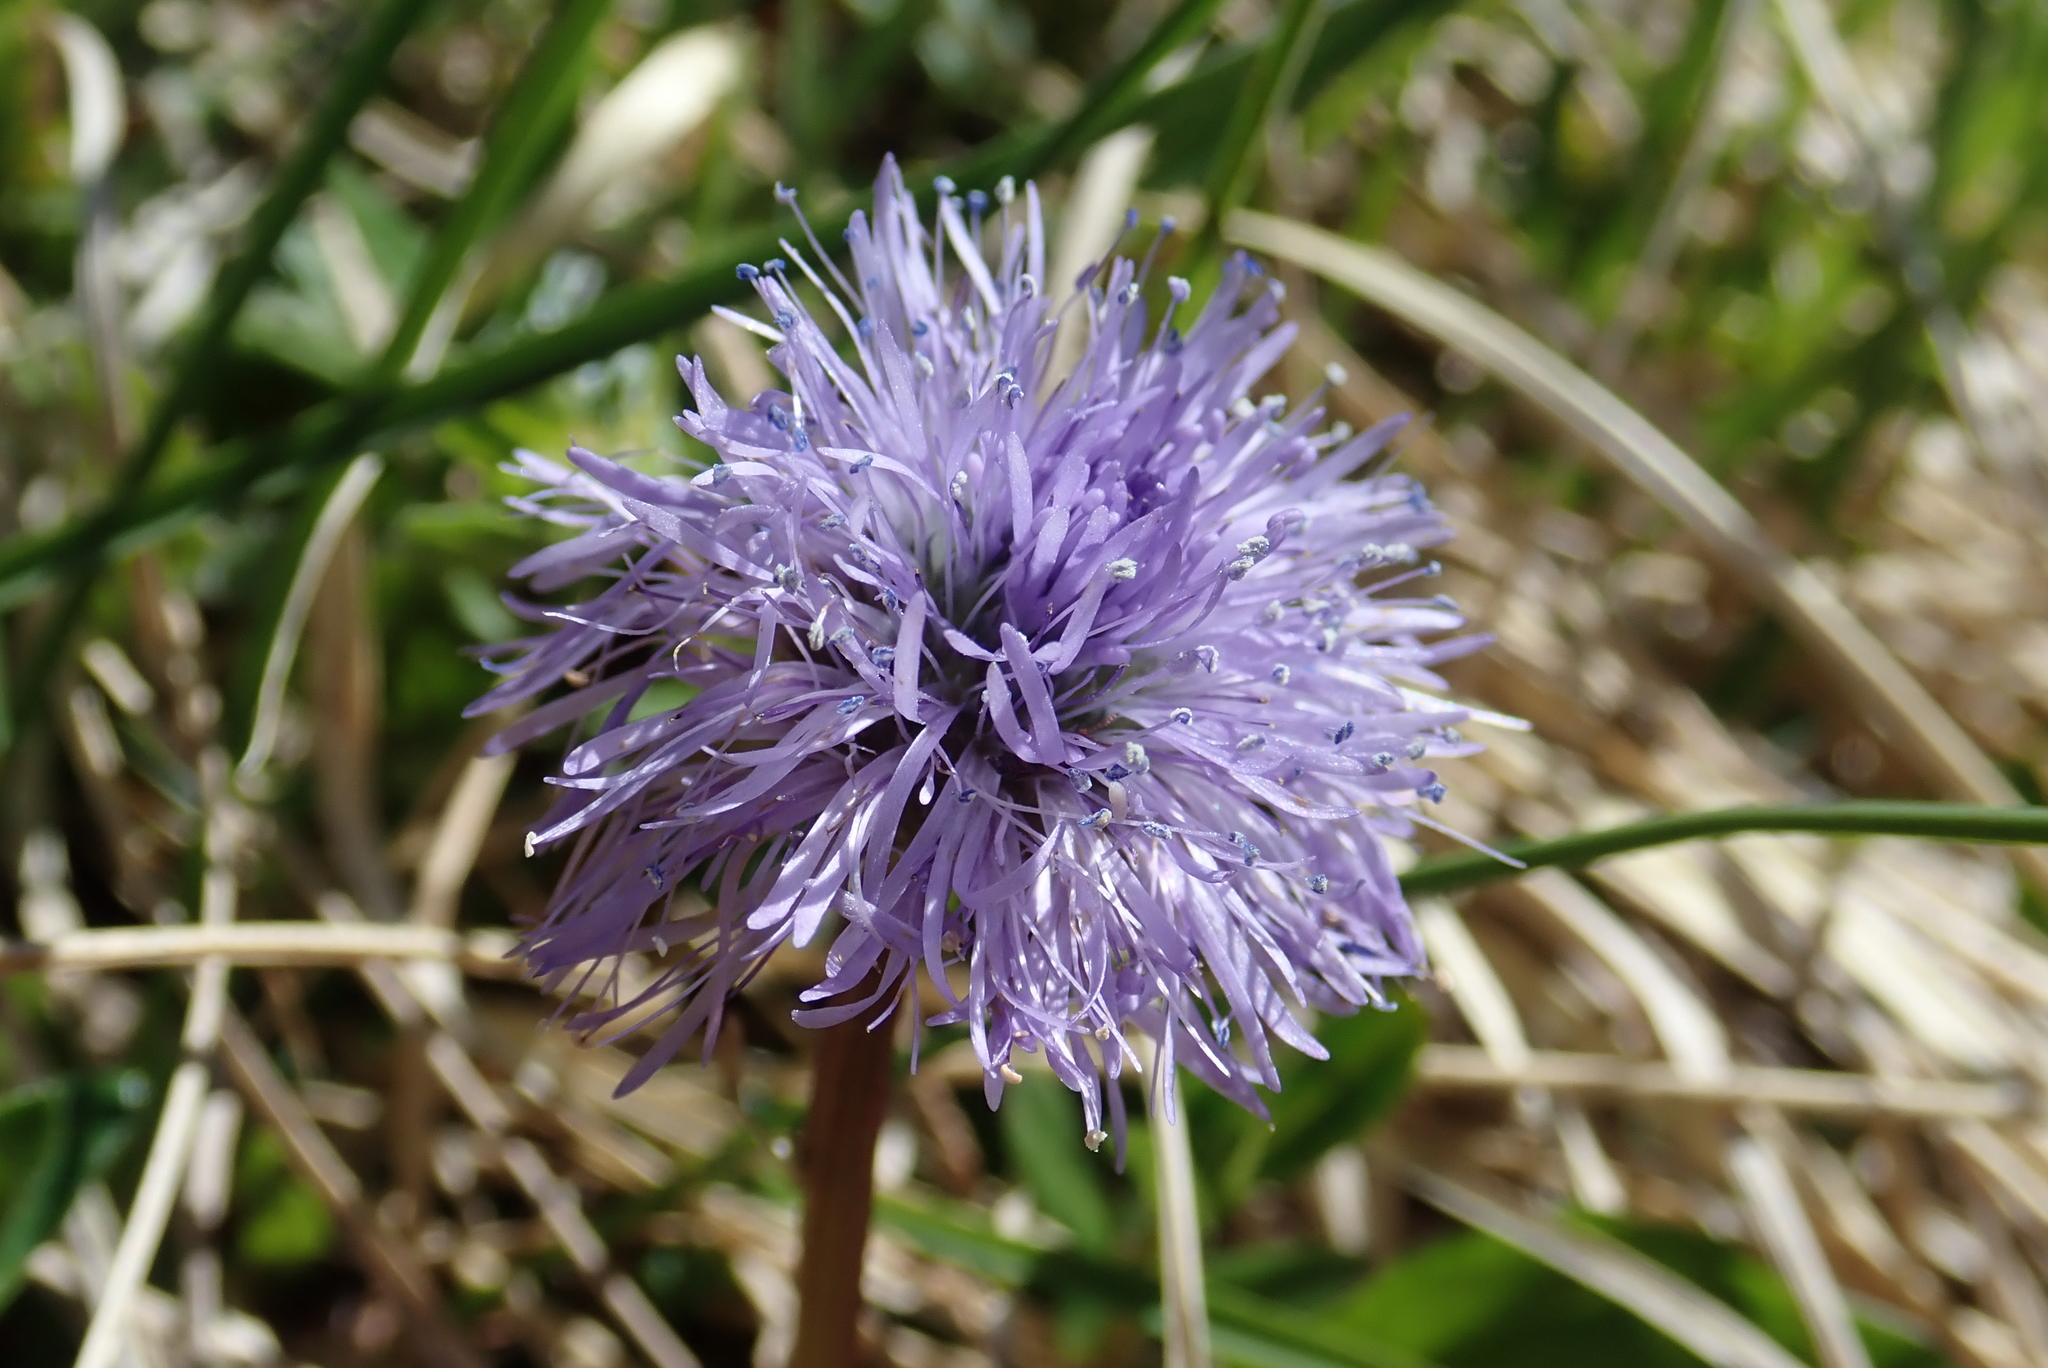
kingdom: Plantae
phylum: Tracheophyta
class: Magnoliopsida
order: Lamiales
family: Plantaginaceae
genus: Globularia
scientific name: Globularia nudicaulis
